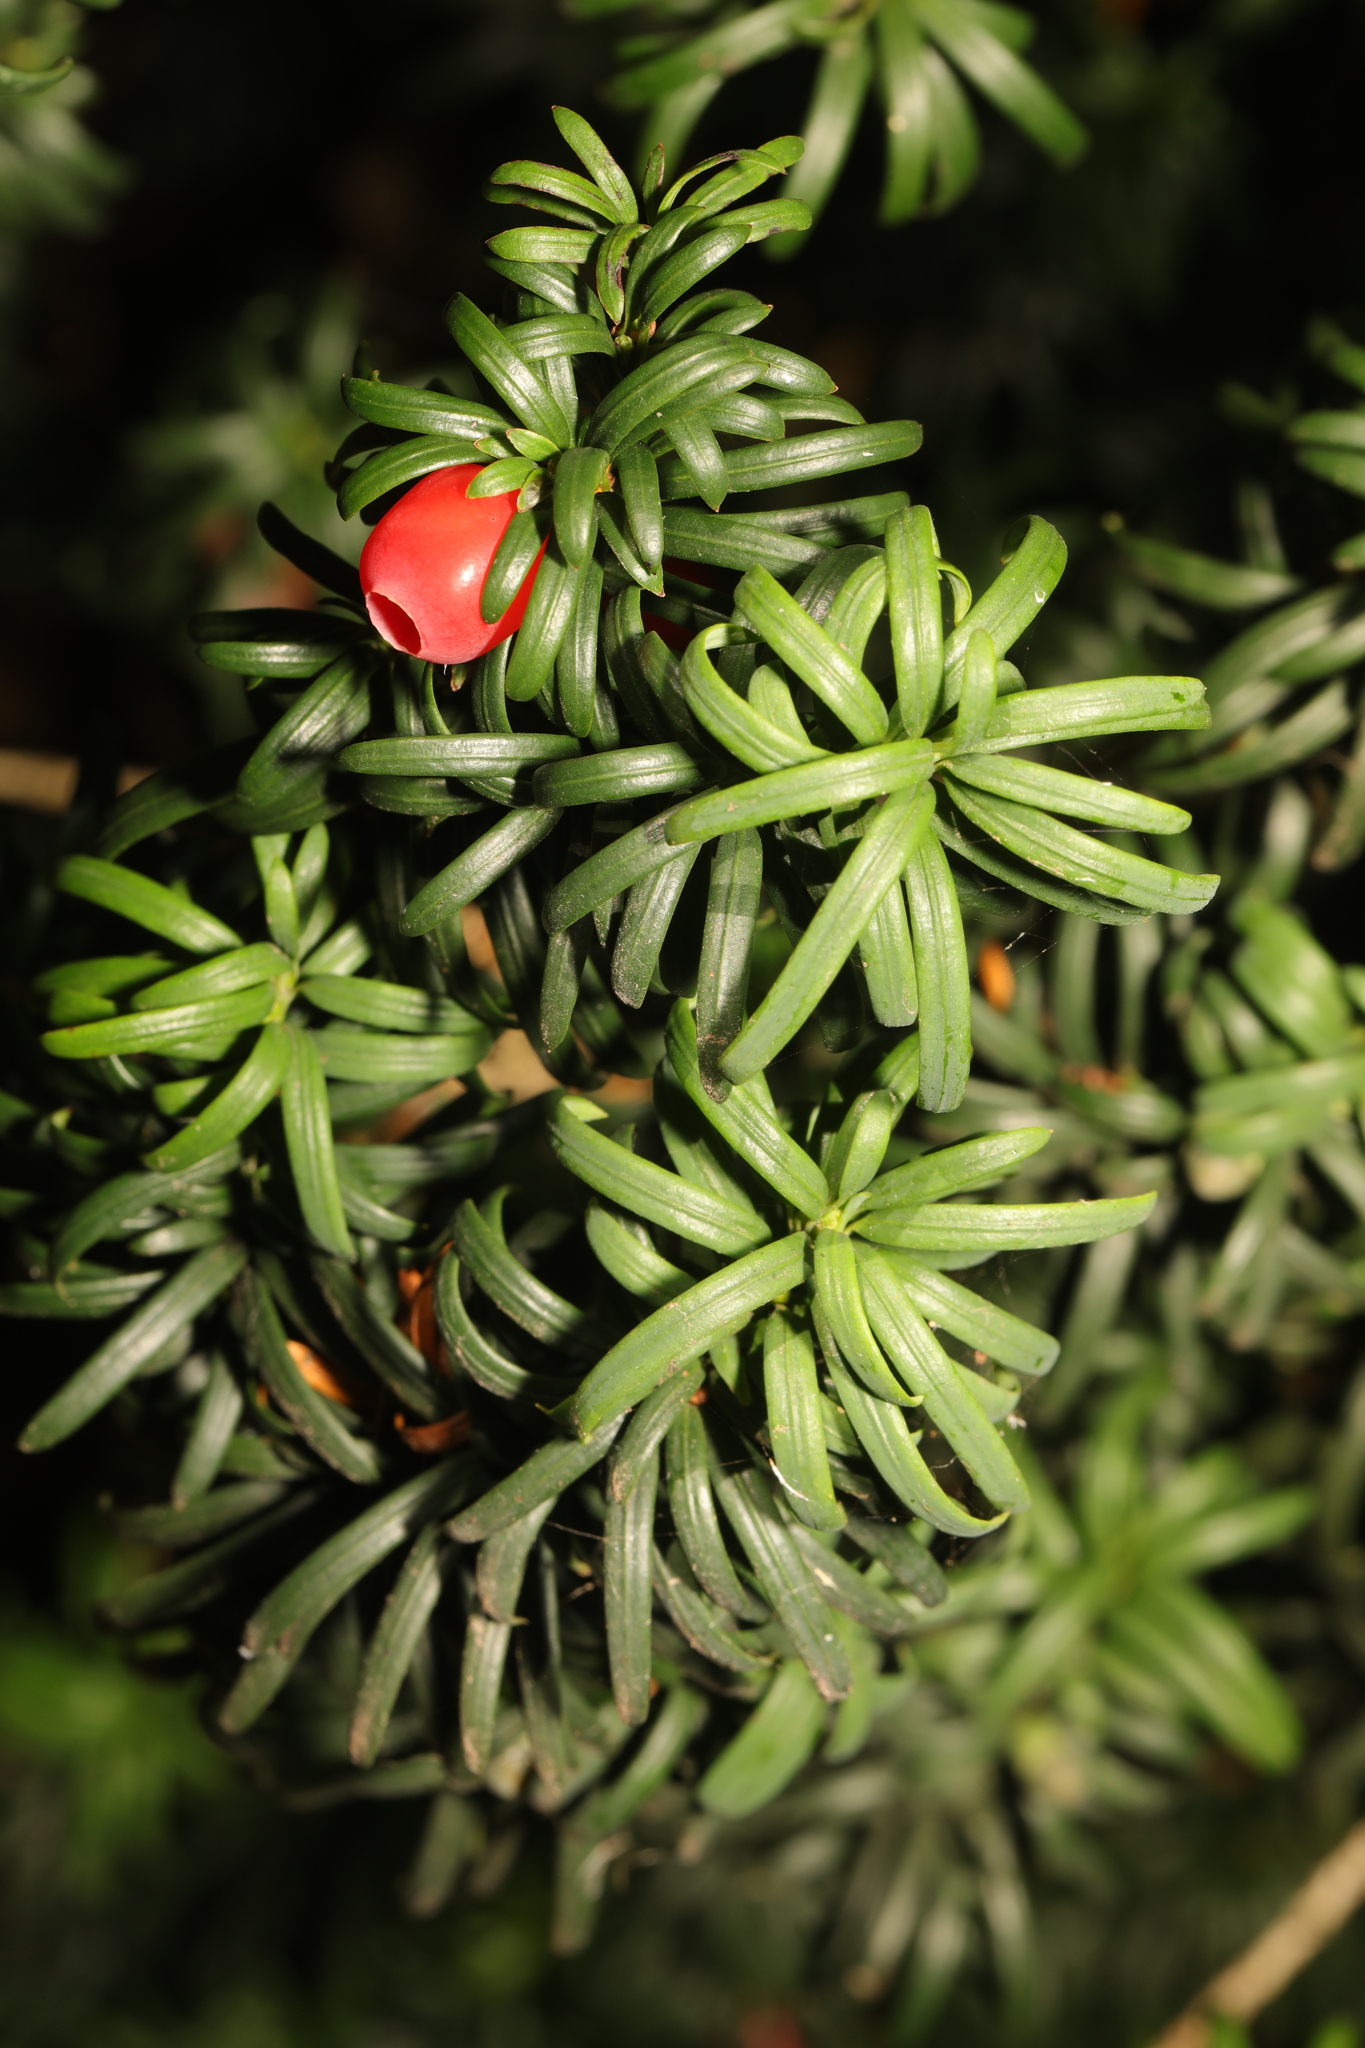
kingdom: Plantae
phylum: Tracheophyta
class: Pinopsida
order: Pinales
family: Taxaceae
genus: Taxus
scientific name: Taxus baccata
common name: Yew
